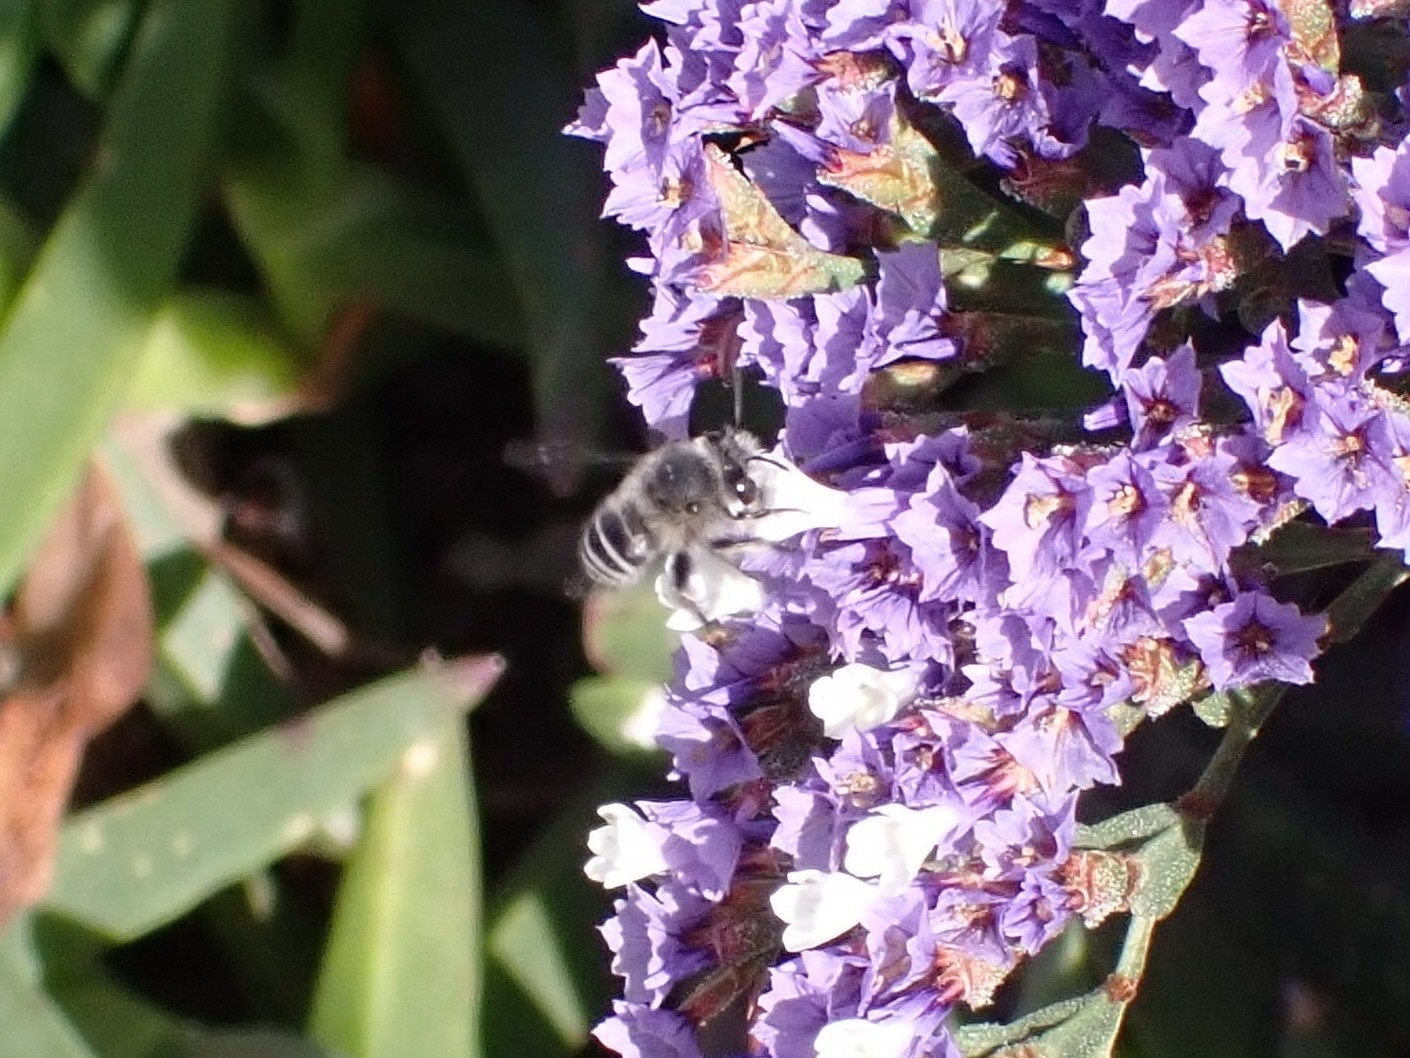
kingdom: Animalia
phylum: Arthropoda
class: Insecta
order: Hymenoptera
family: Apidae
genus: Anthophora
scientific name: Anthophora orotavae
